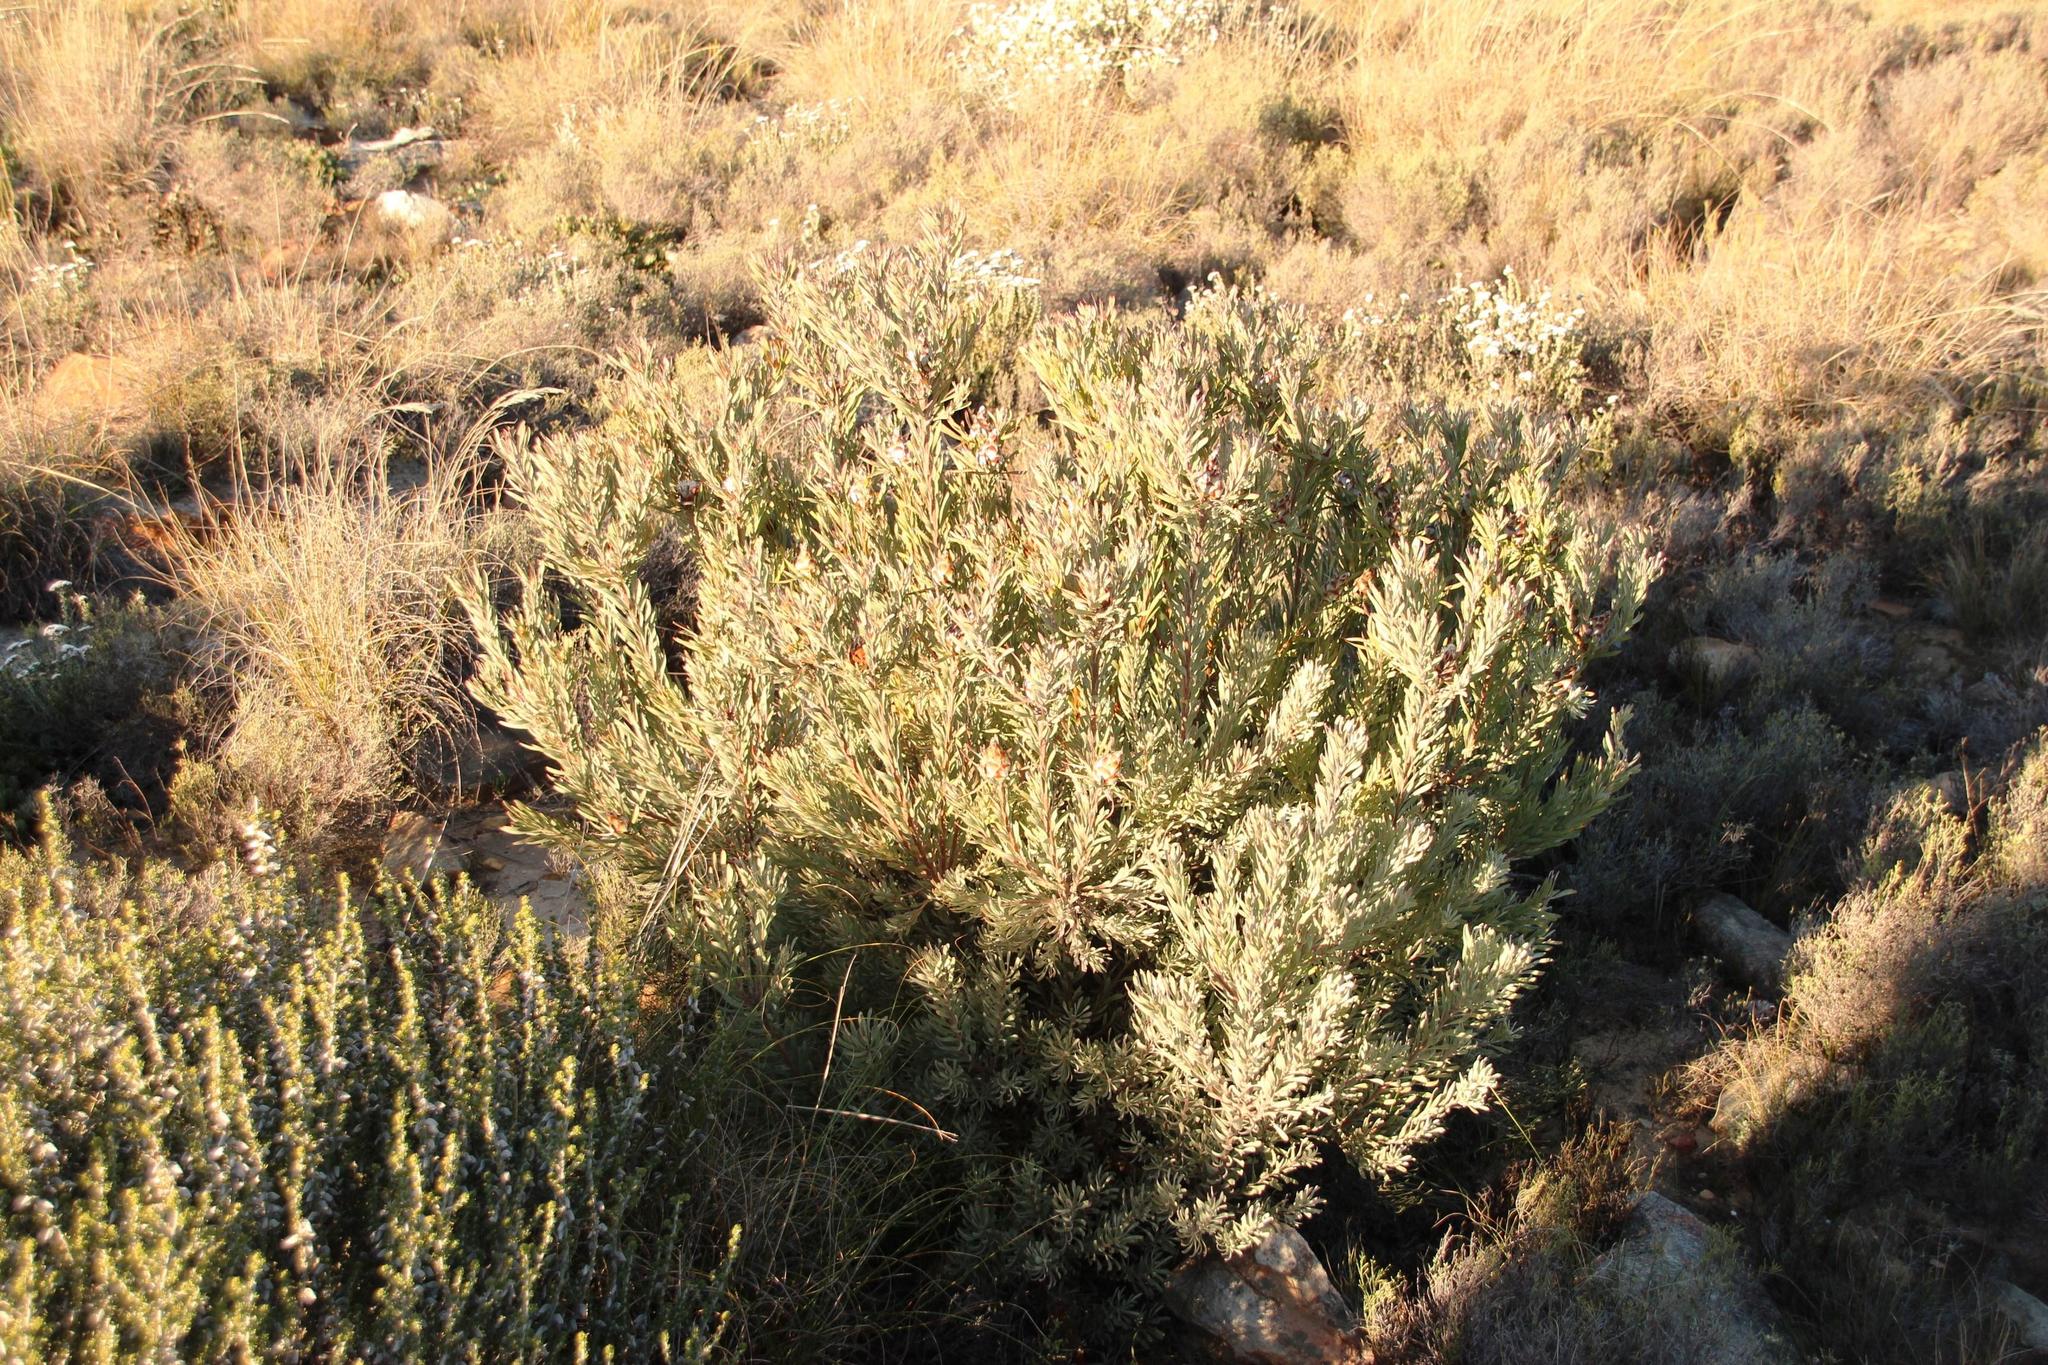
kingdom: Plantae
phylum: Tracheophyta
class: Magnoliopsida
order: Proteales
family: Proteaceae
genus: Leucadendron
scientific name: Leucadendron rubrum
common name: Spinning top
